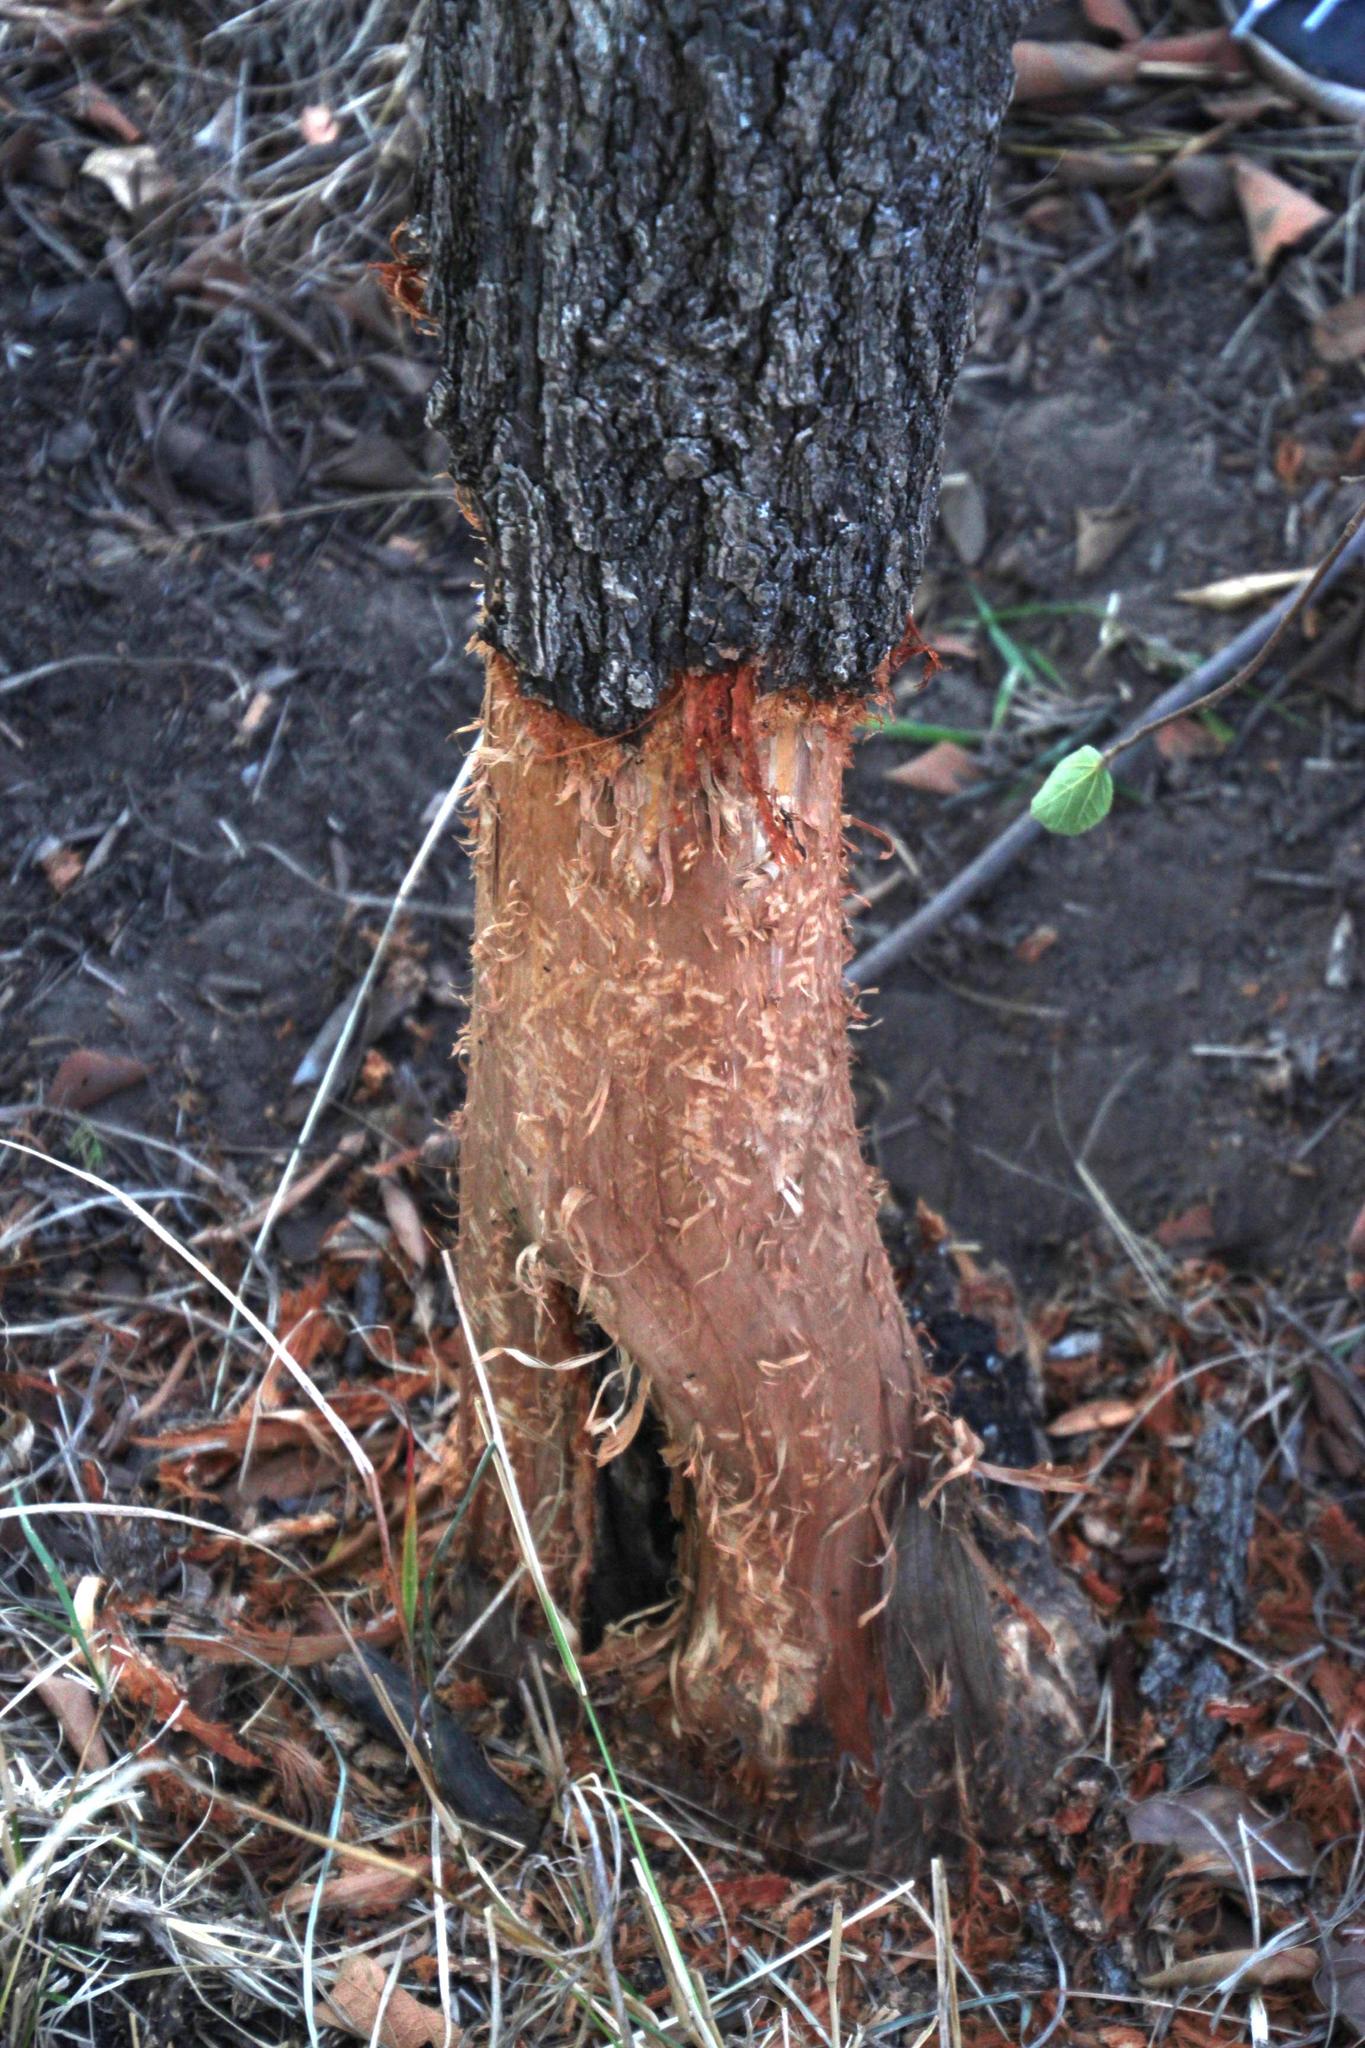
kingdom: Animalia
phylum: Chordata
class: Mammalia
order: Rodentia
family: Hystricidae
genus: Hystrix
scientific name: Hystrix africaeaustralis
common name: Cape porcupine
